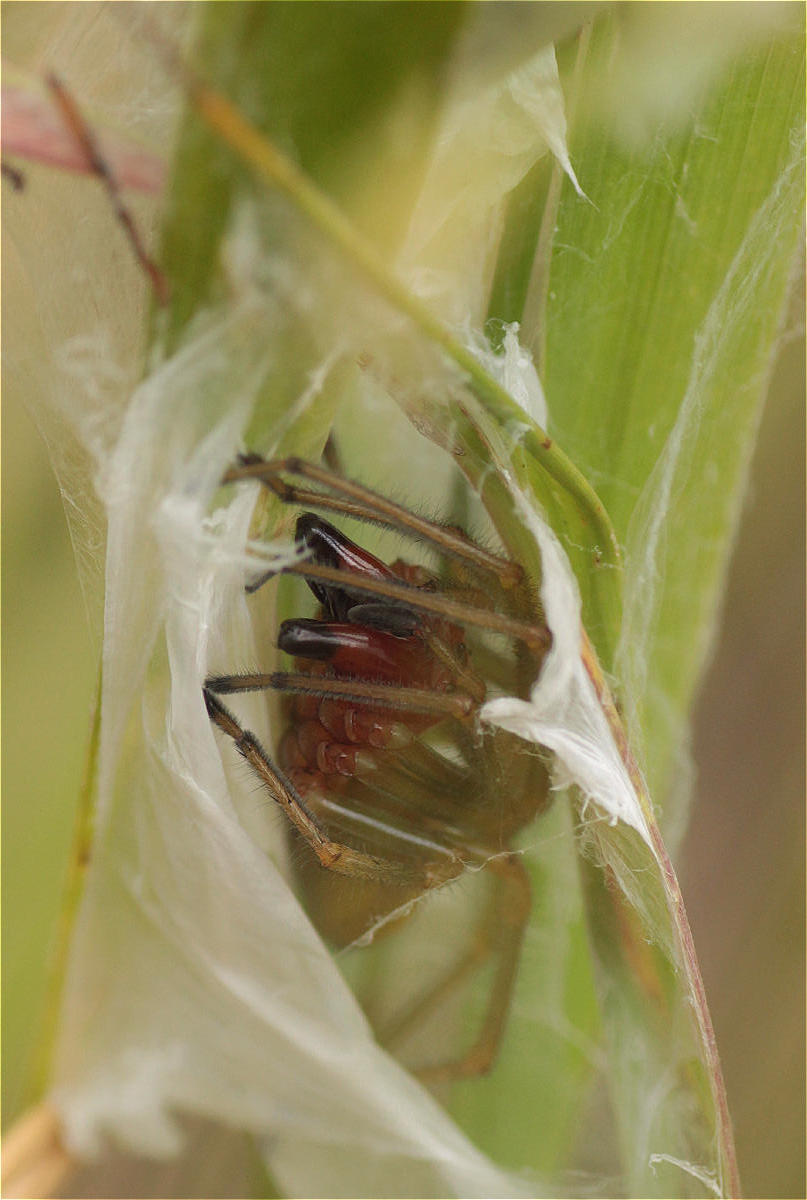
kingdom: Animalia
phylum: Arthropoda
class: Arachnida
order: Araneae
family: Cheiracanthiidae
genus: Cheiracanthium
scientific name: Cheiracanthium punctorium
